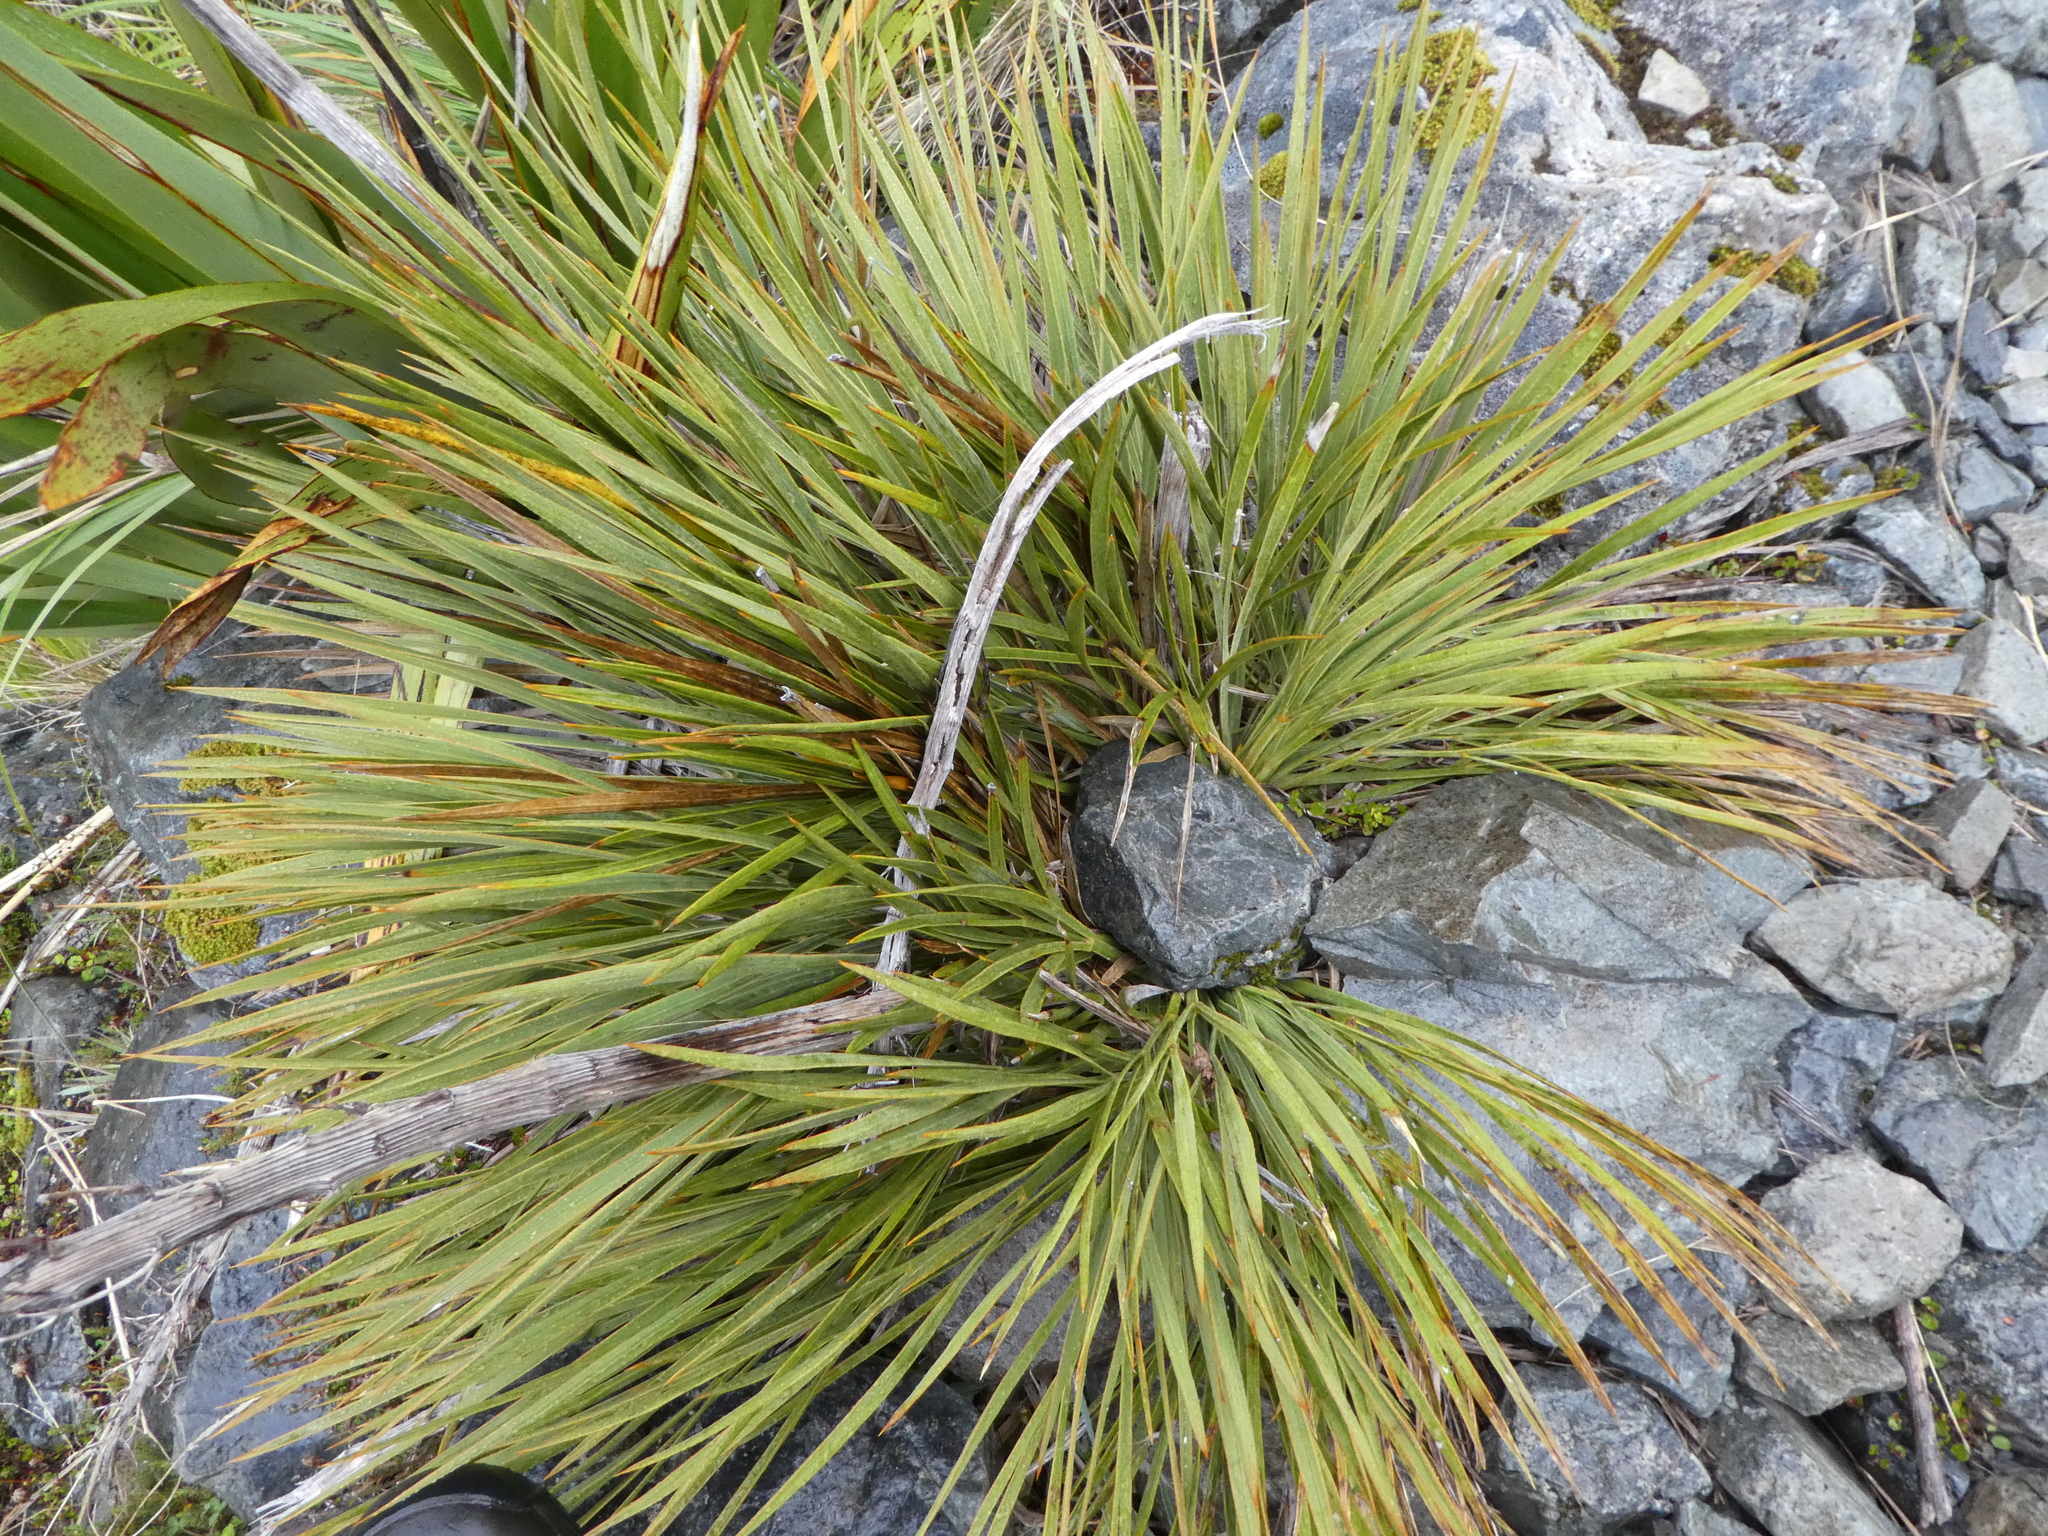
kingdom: Plantae
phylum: Tracheophyta
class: Magnoliopsida
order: Apiales
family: Apiaceae
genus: Aciphylla
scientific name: Aciphylla ferox
